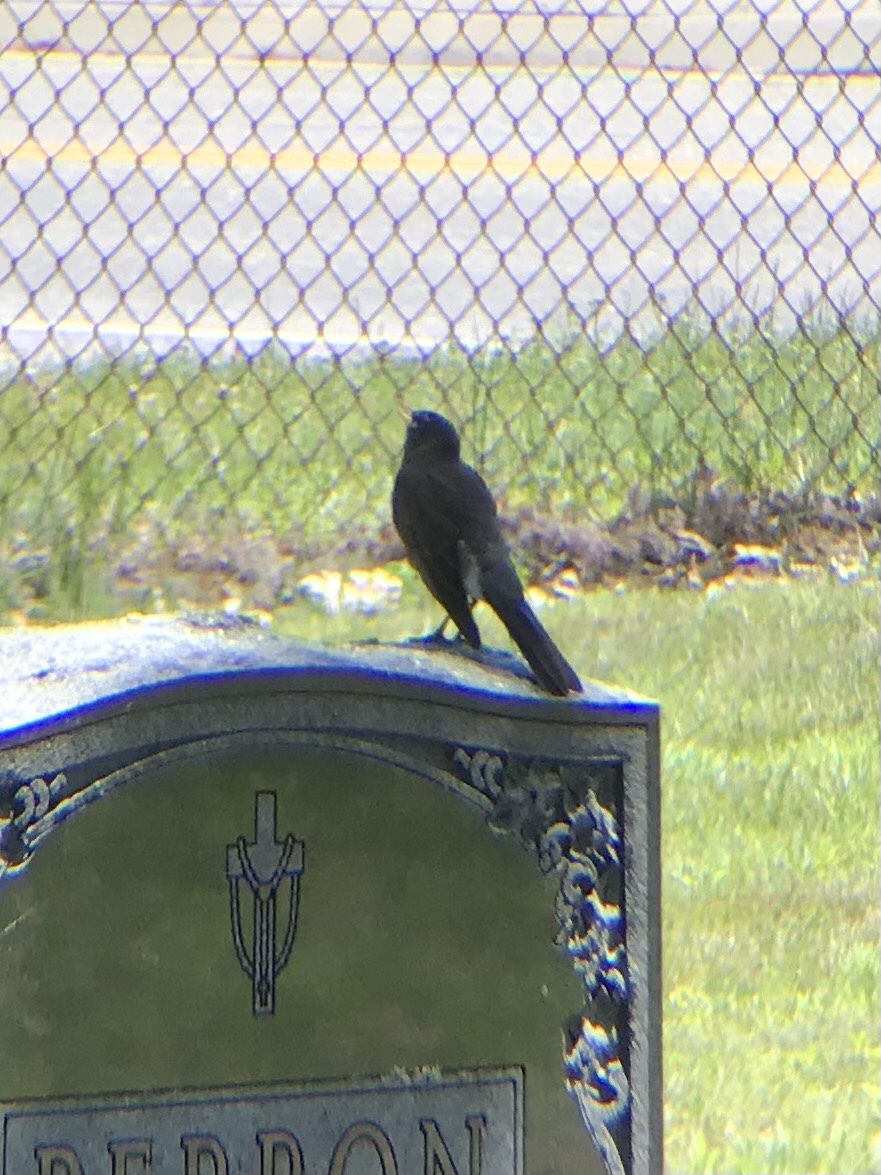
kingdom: Animalia
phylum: Chordata
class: Aves
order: Passeriformes
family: Turdidae
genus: Turdus
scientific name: Turdus migratorius
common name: American robin
